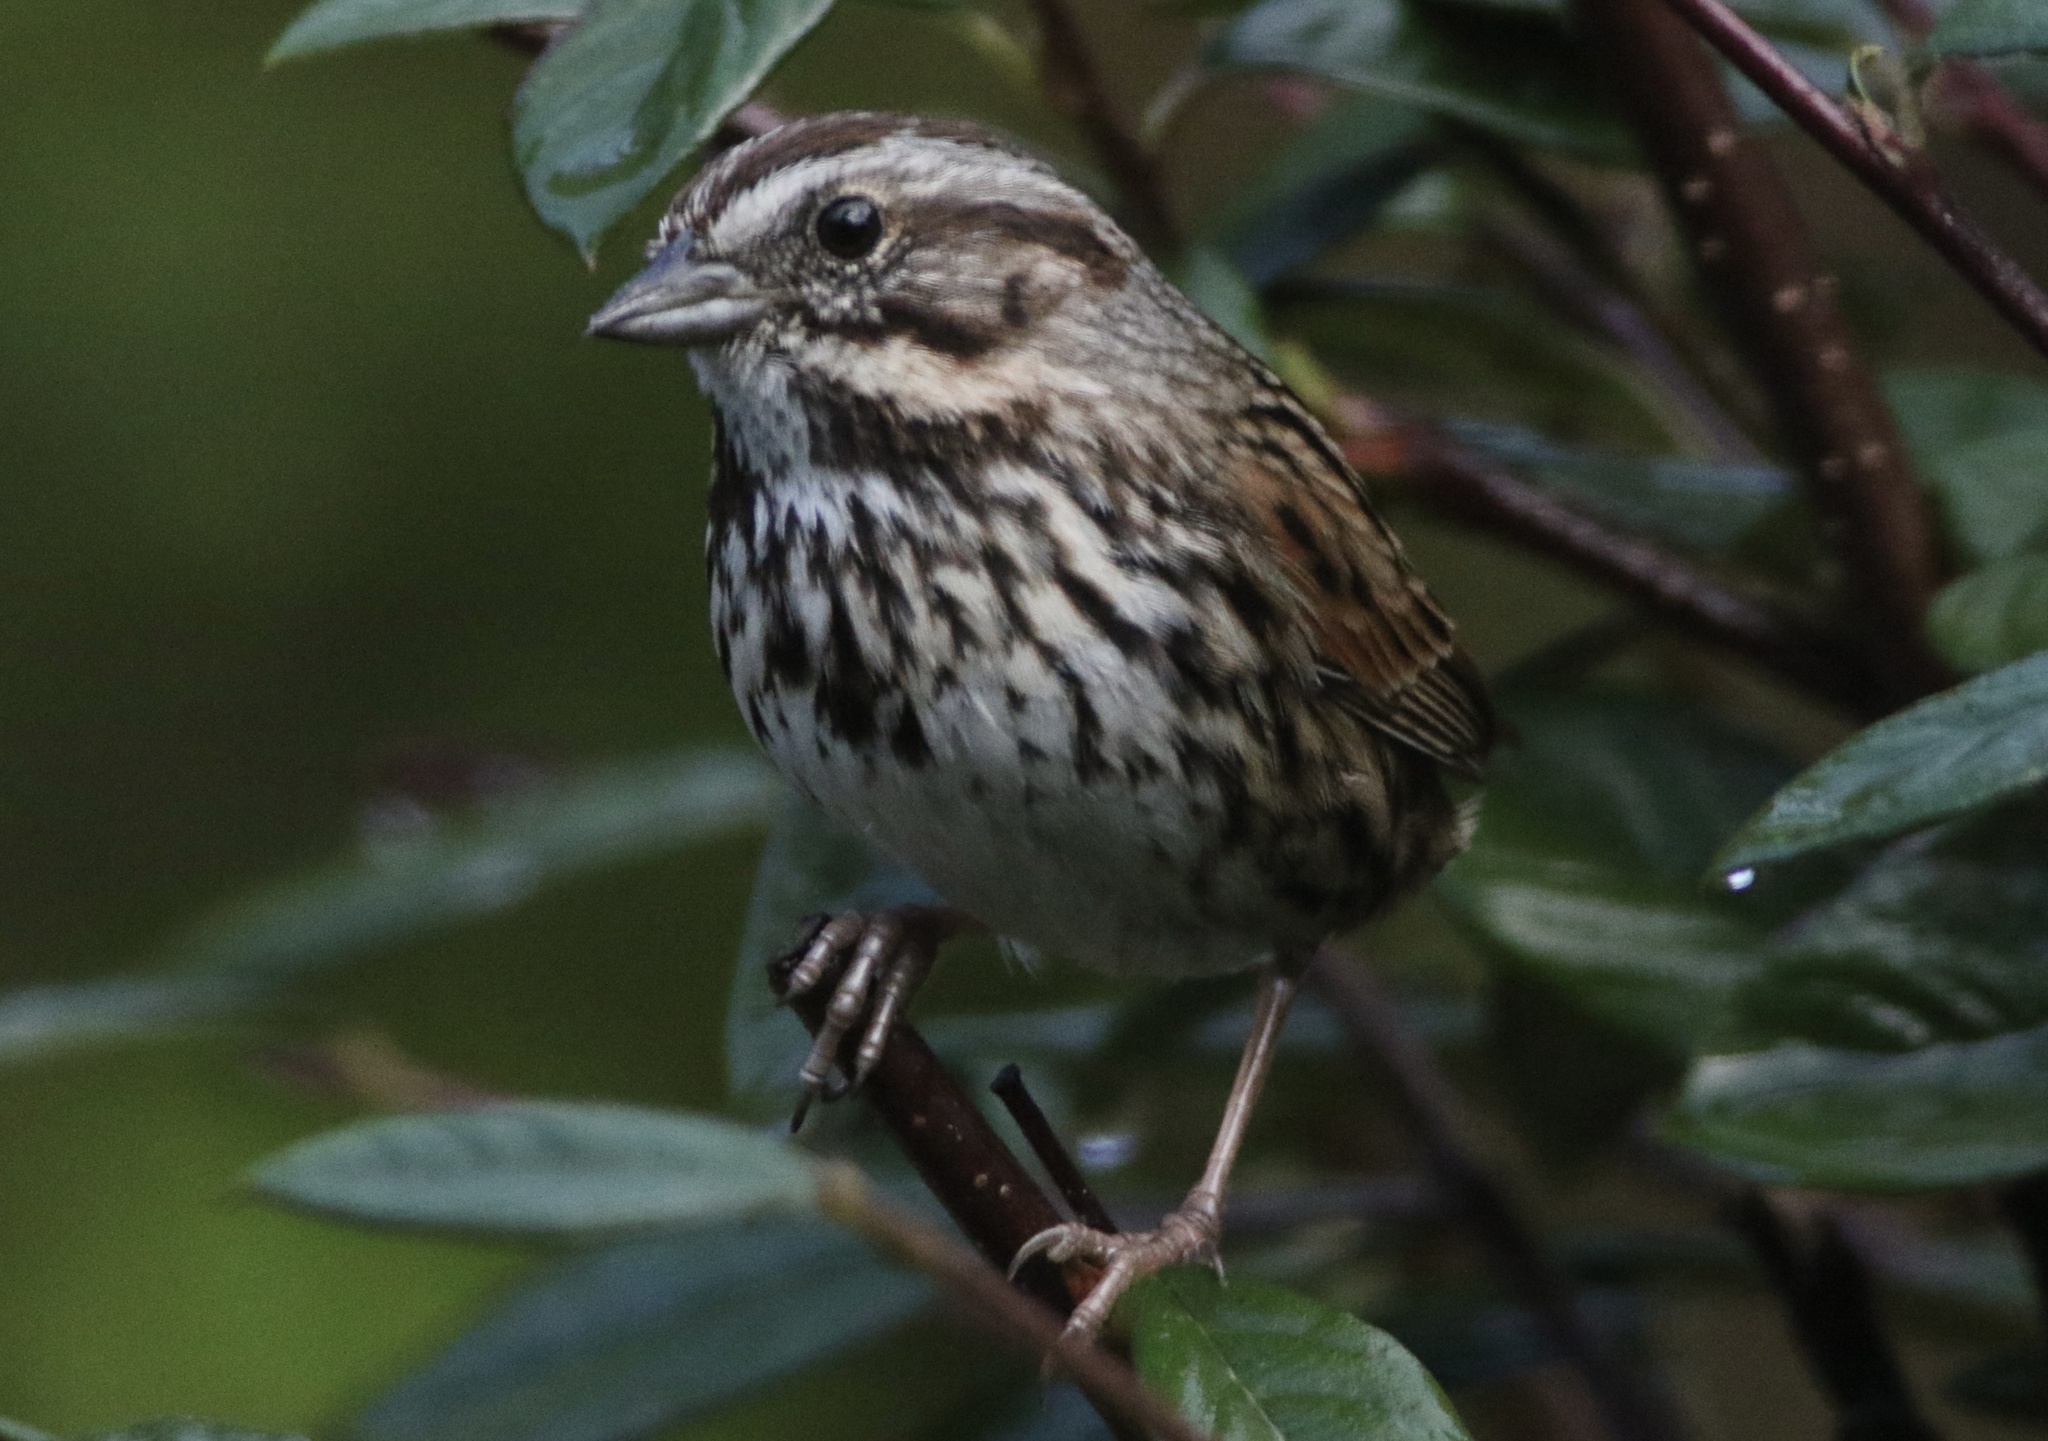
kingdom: Animalia
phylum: Chordata
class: Aves
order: Passeriformes
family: Passerellidae
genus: Melospiza
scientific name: Melospiza melodia
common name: Song sparrow
